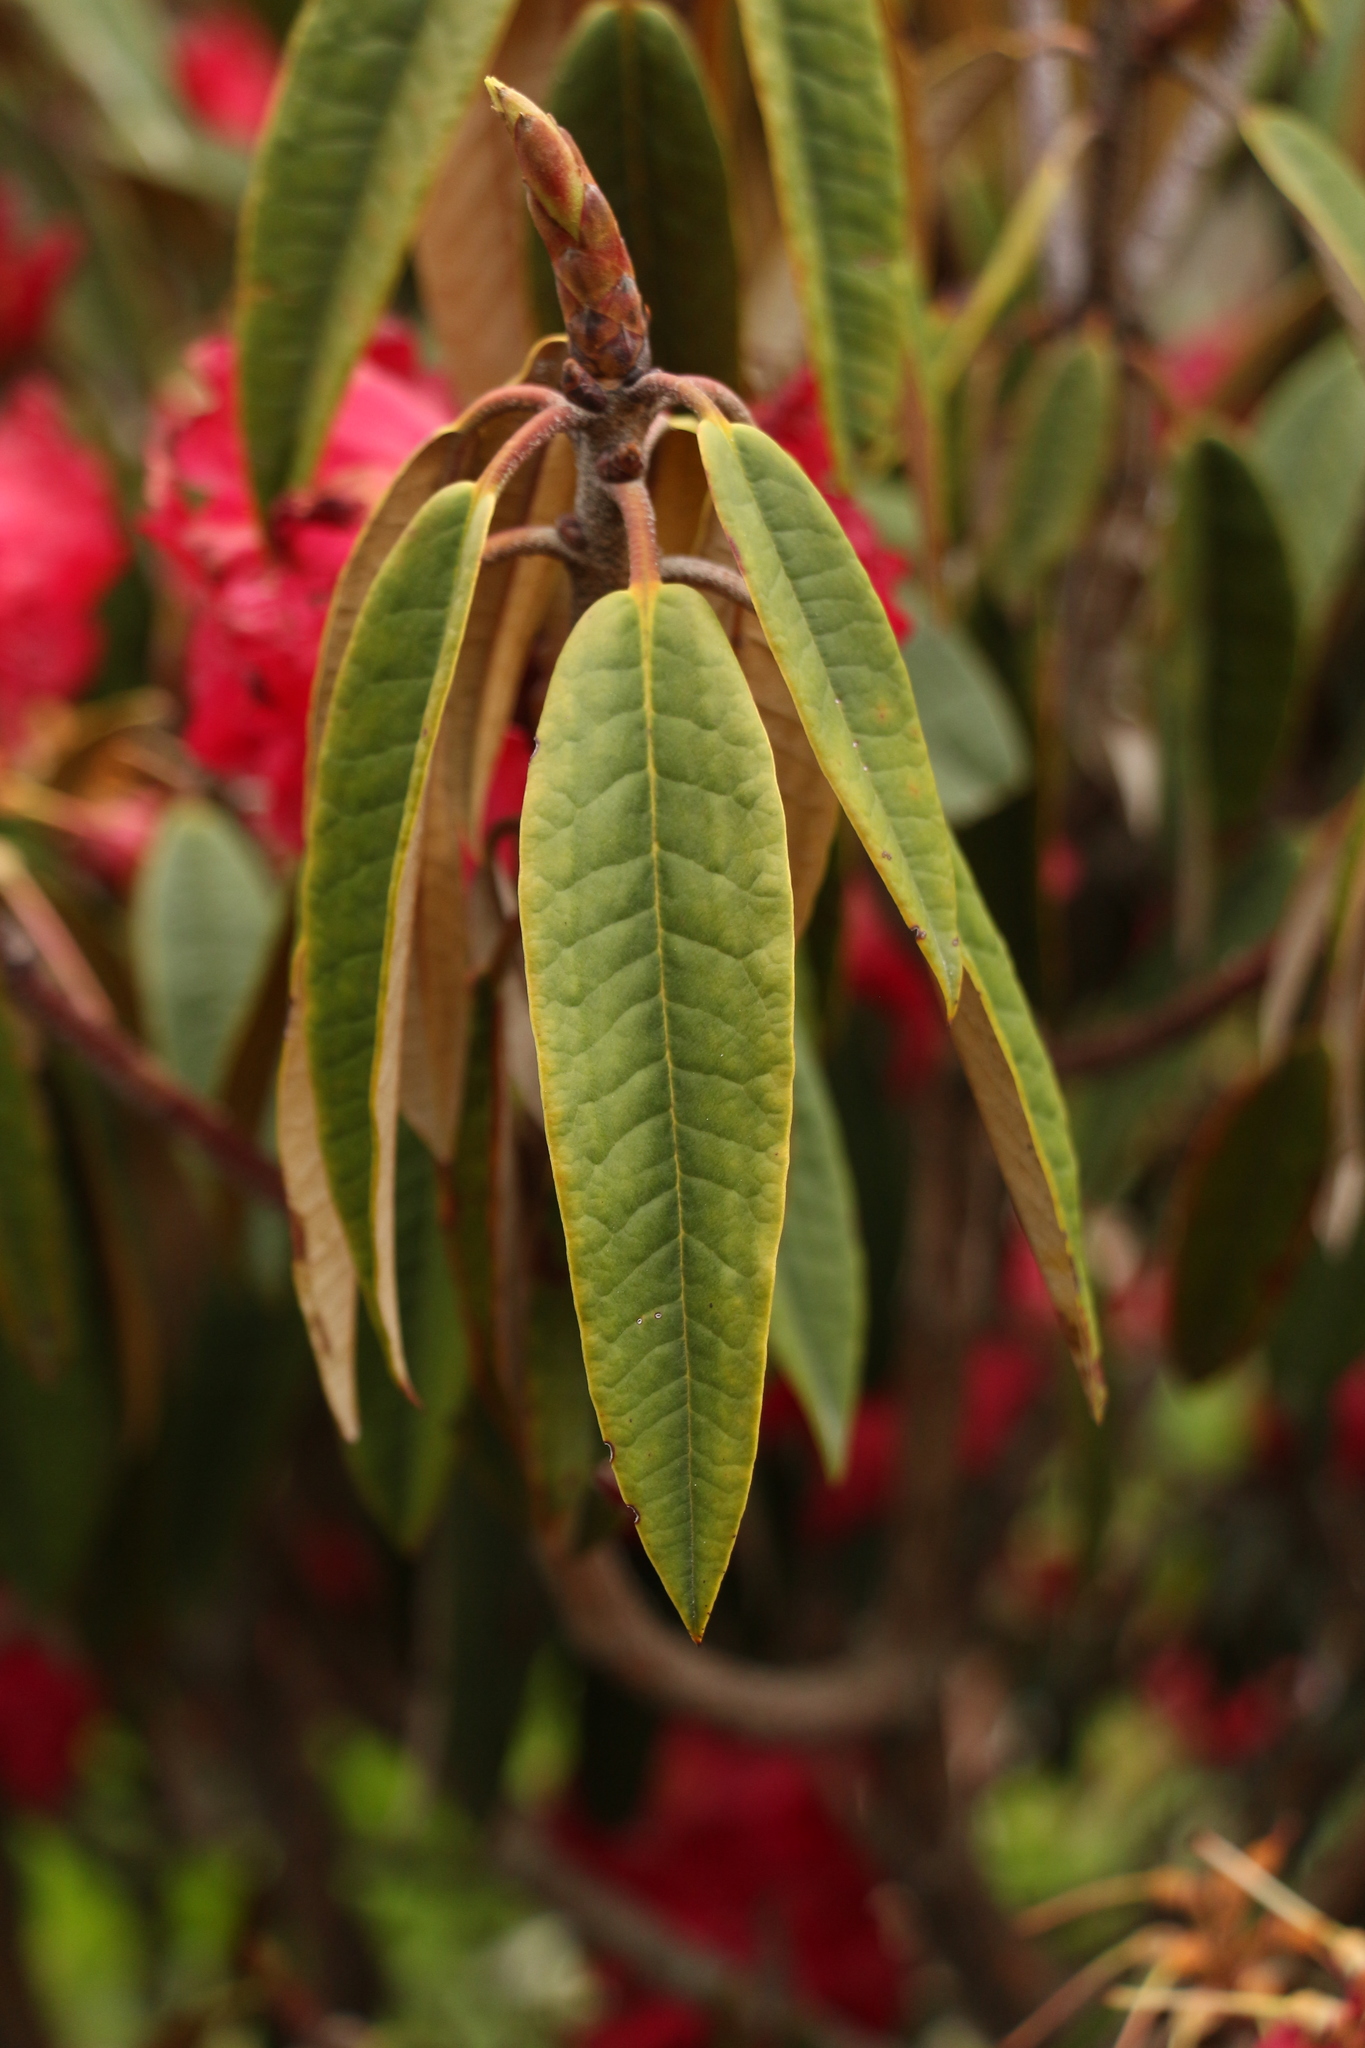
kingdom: Plantae
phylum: Tracheophyta
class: Magnoliopsida
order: Ericales
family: Ericaceae
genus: Rhododendron
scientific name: Rhododendron arboreum
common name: Tree rhododendron
